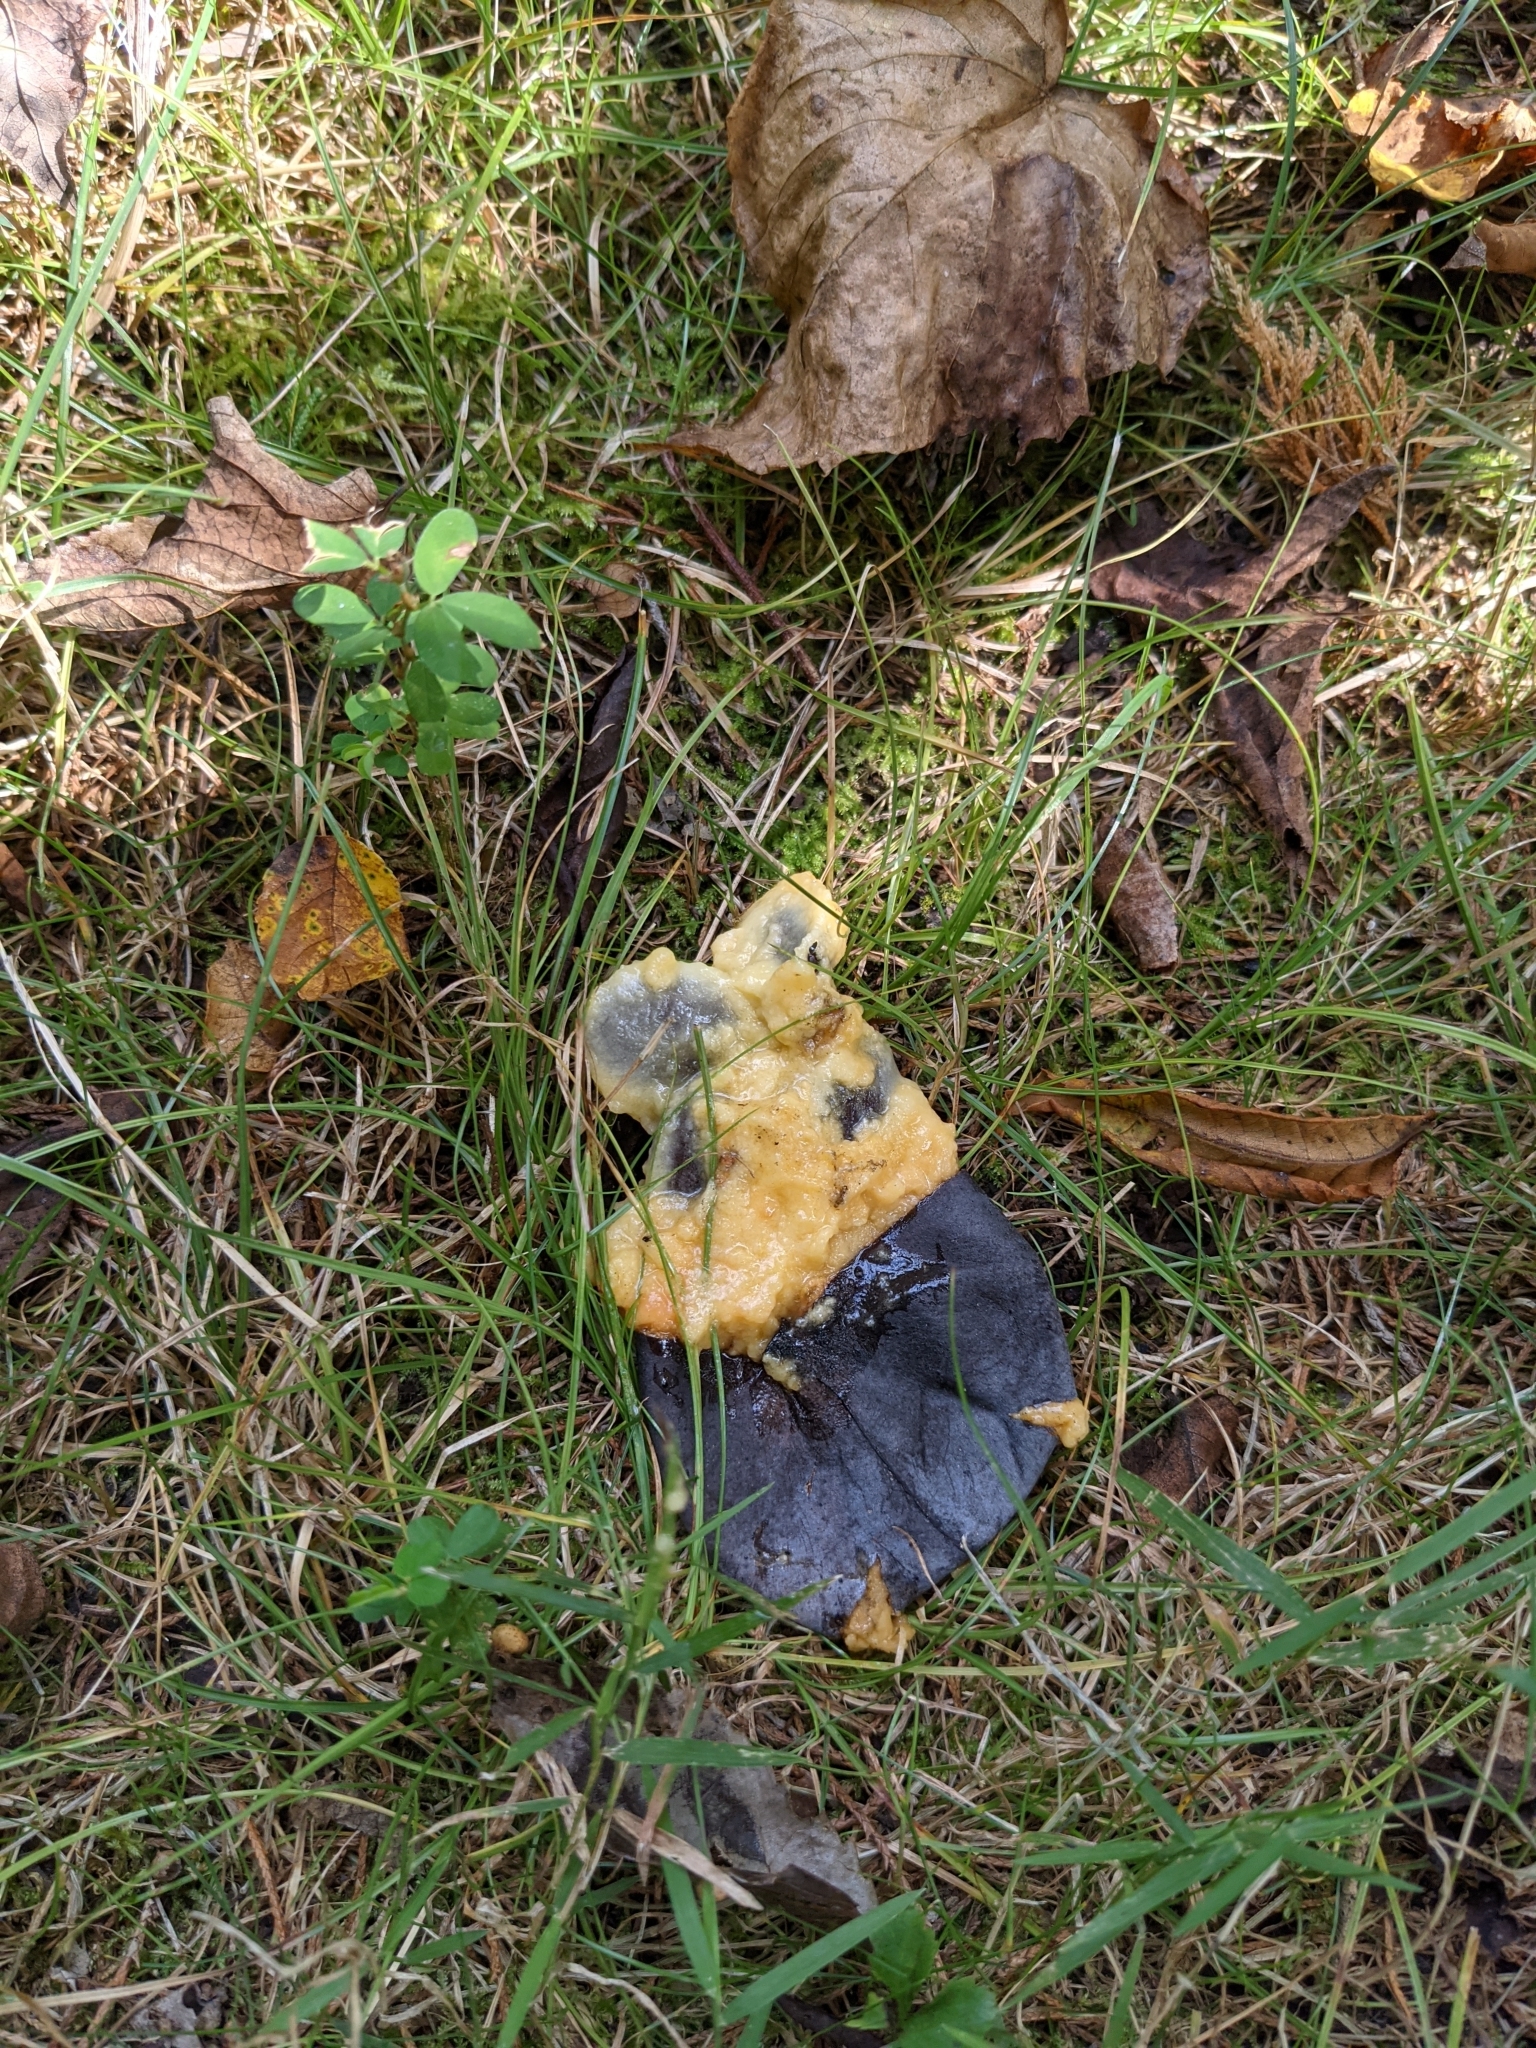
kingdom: Plantae
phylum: Tracheophyta
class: Magnoliopsida
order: Magnoliales
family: Annonaceae
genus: Asimina
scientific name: Asimina triloba
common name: Dog-banana
